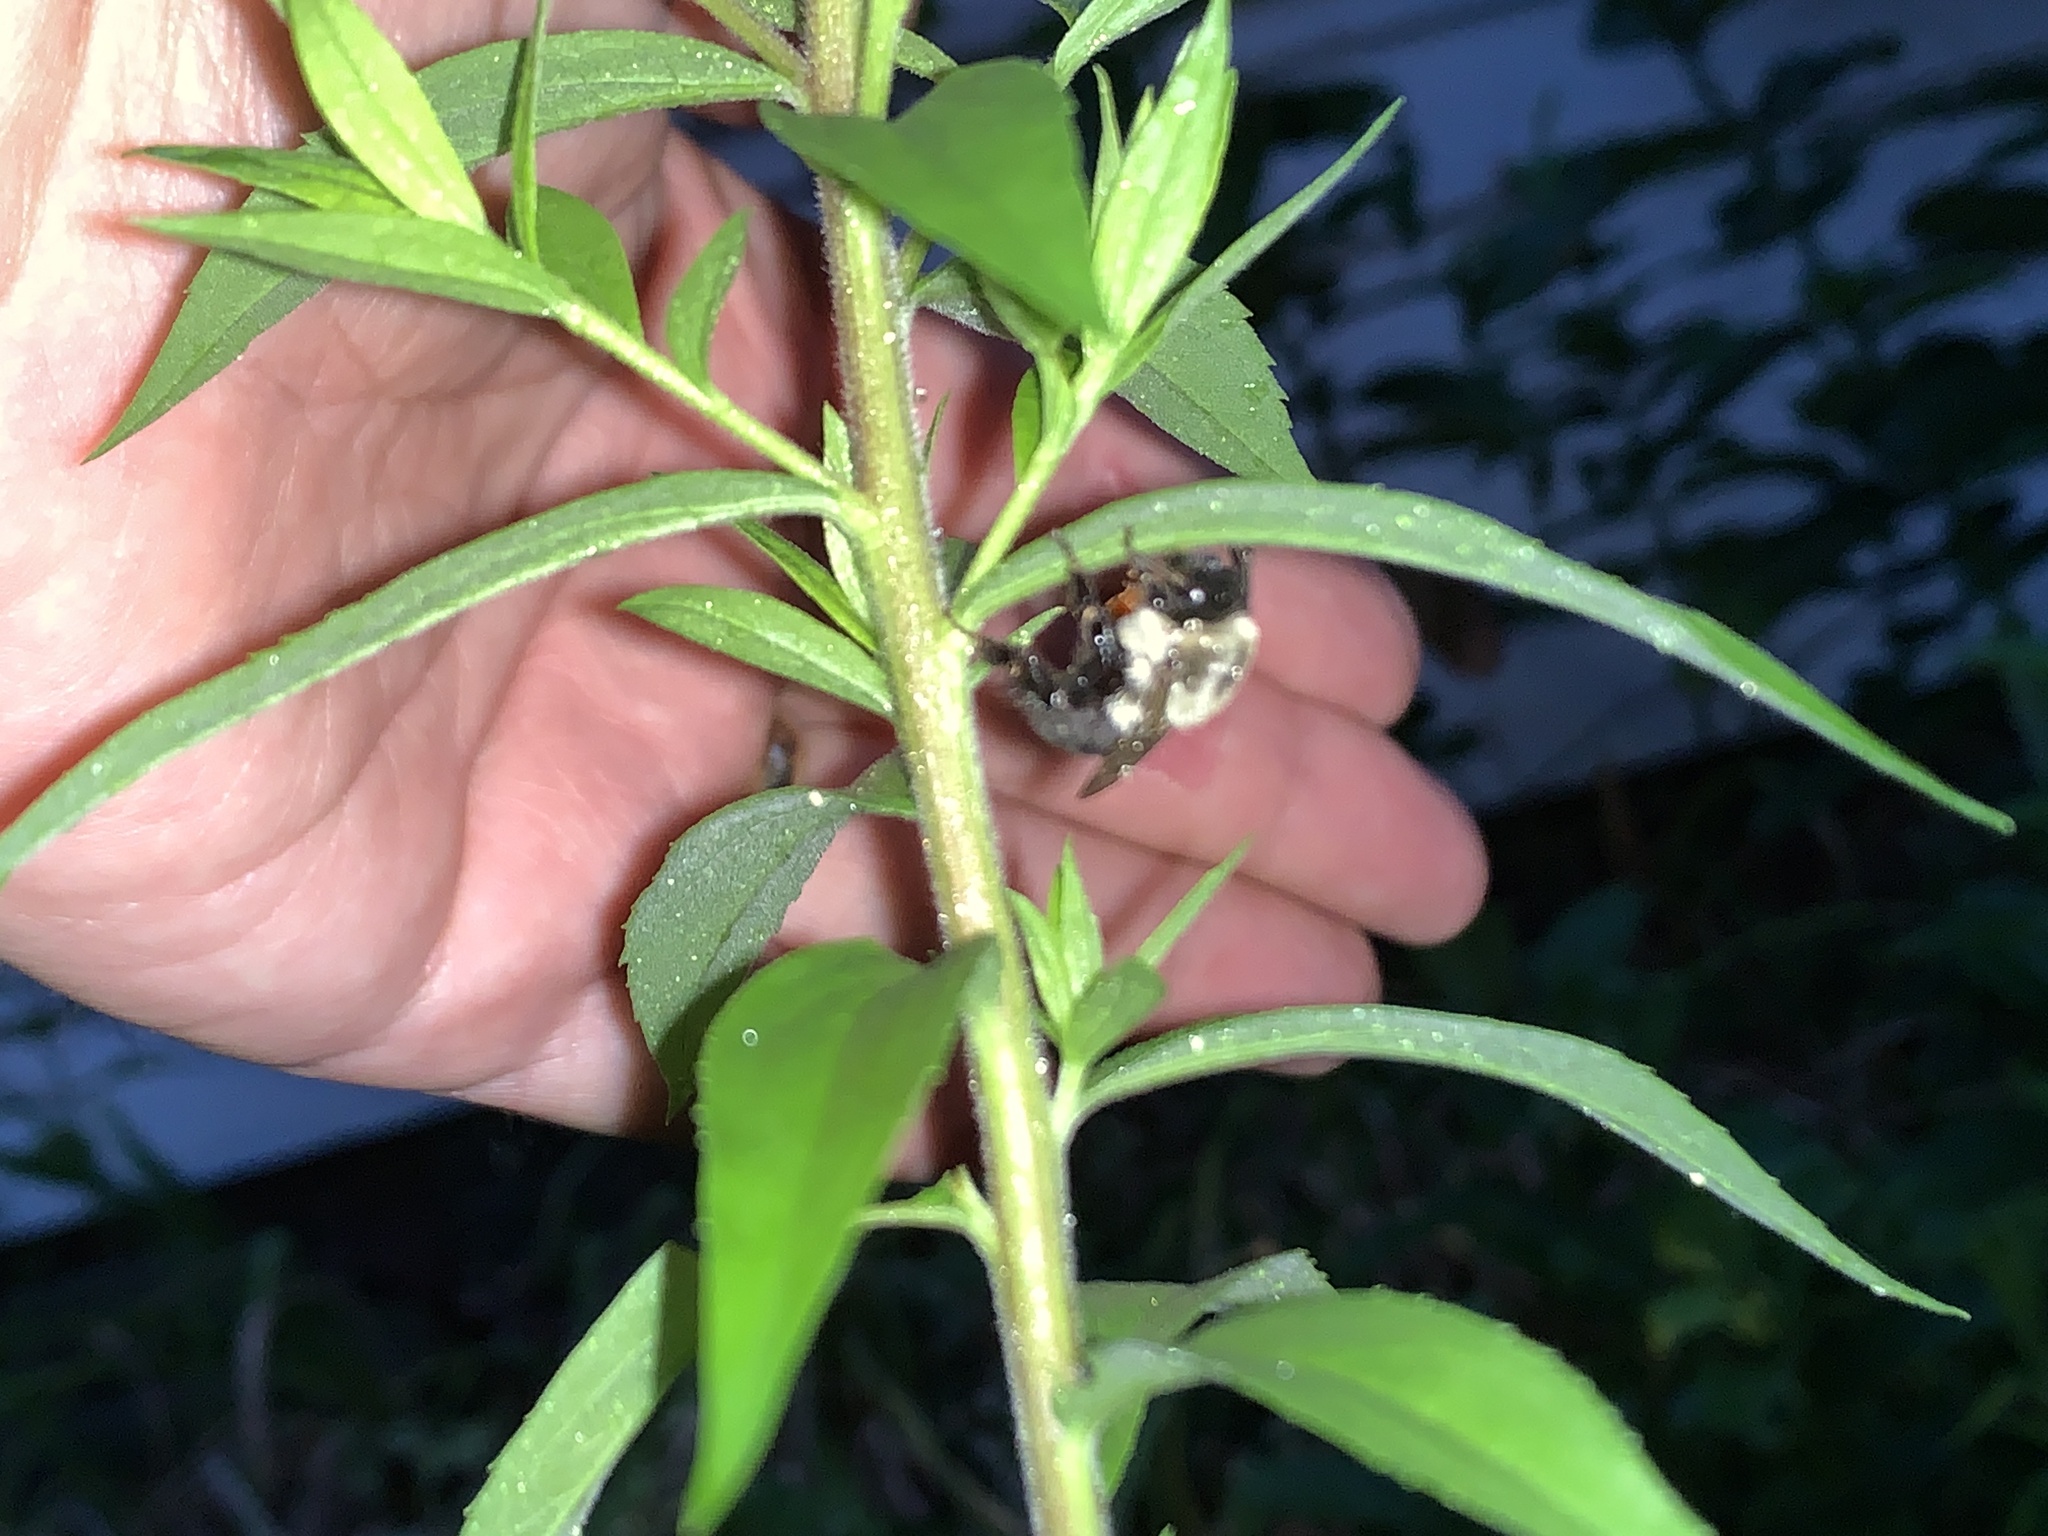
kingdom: Animalia
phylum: Arthropoda
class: Insecta
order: Hymenoptera
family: Apidae
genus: Bombus
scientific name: Bombus impatiens
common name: Common eastern bumble bee
